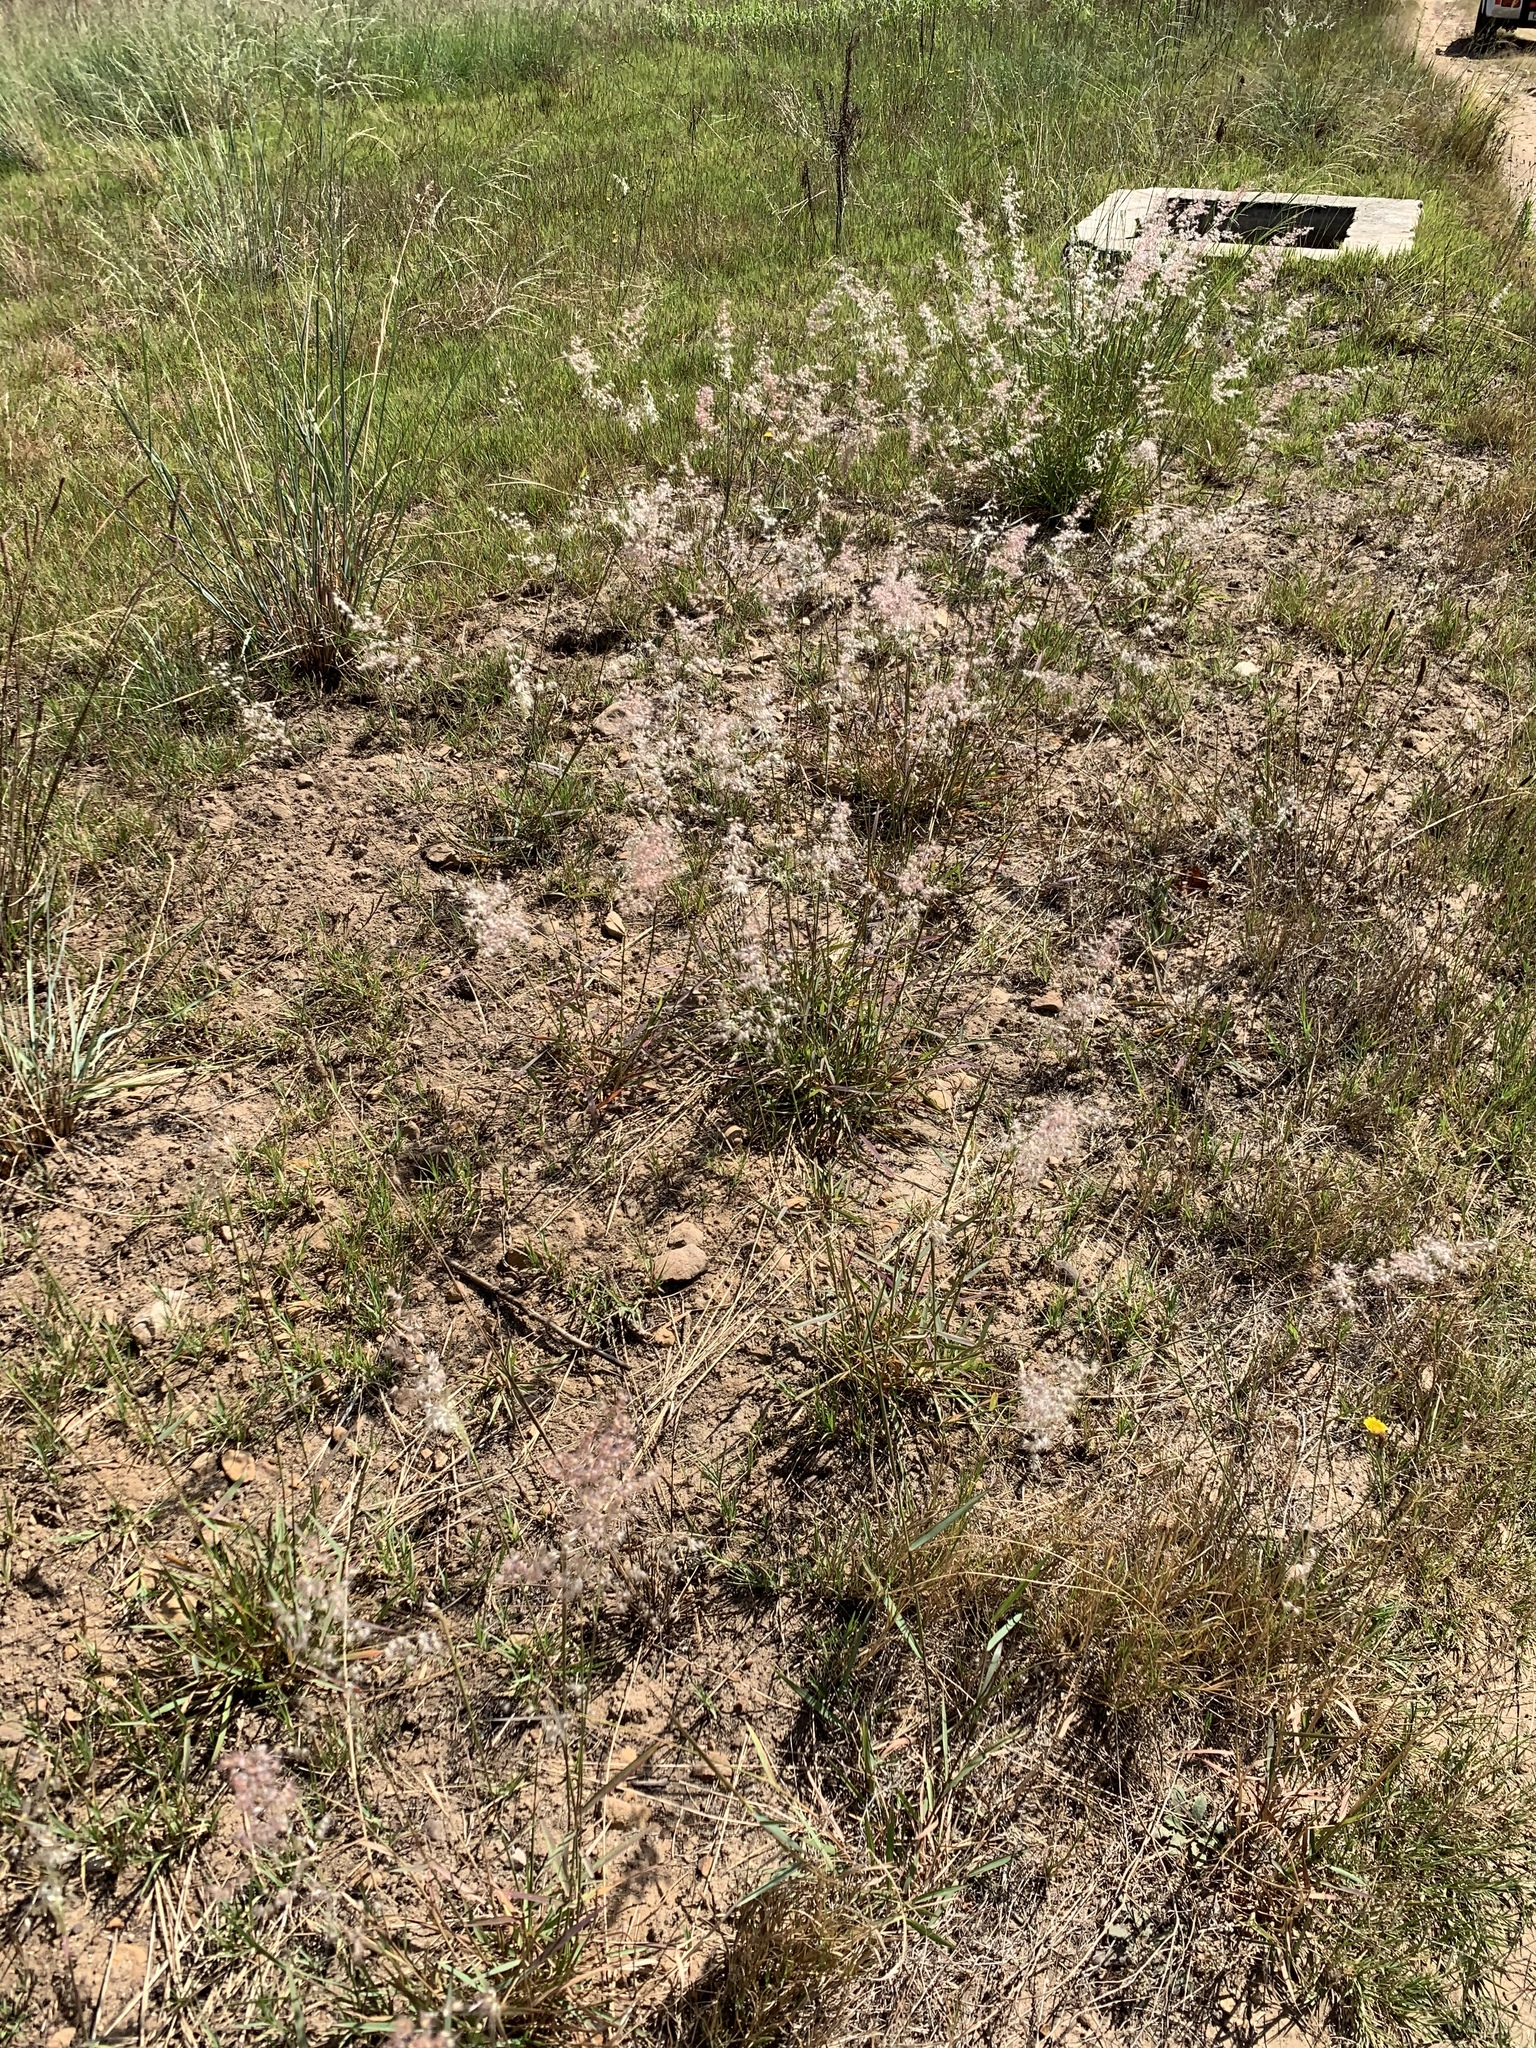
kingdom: Plantae
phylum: Tracheophyta
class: Liliopsida
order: Poales
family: Poaceae
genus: Melinis
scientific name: Melinis repens
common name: Rose natal grass
